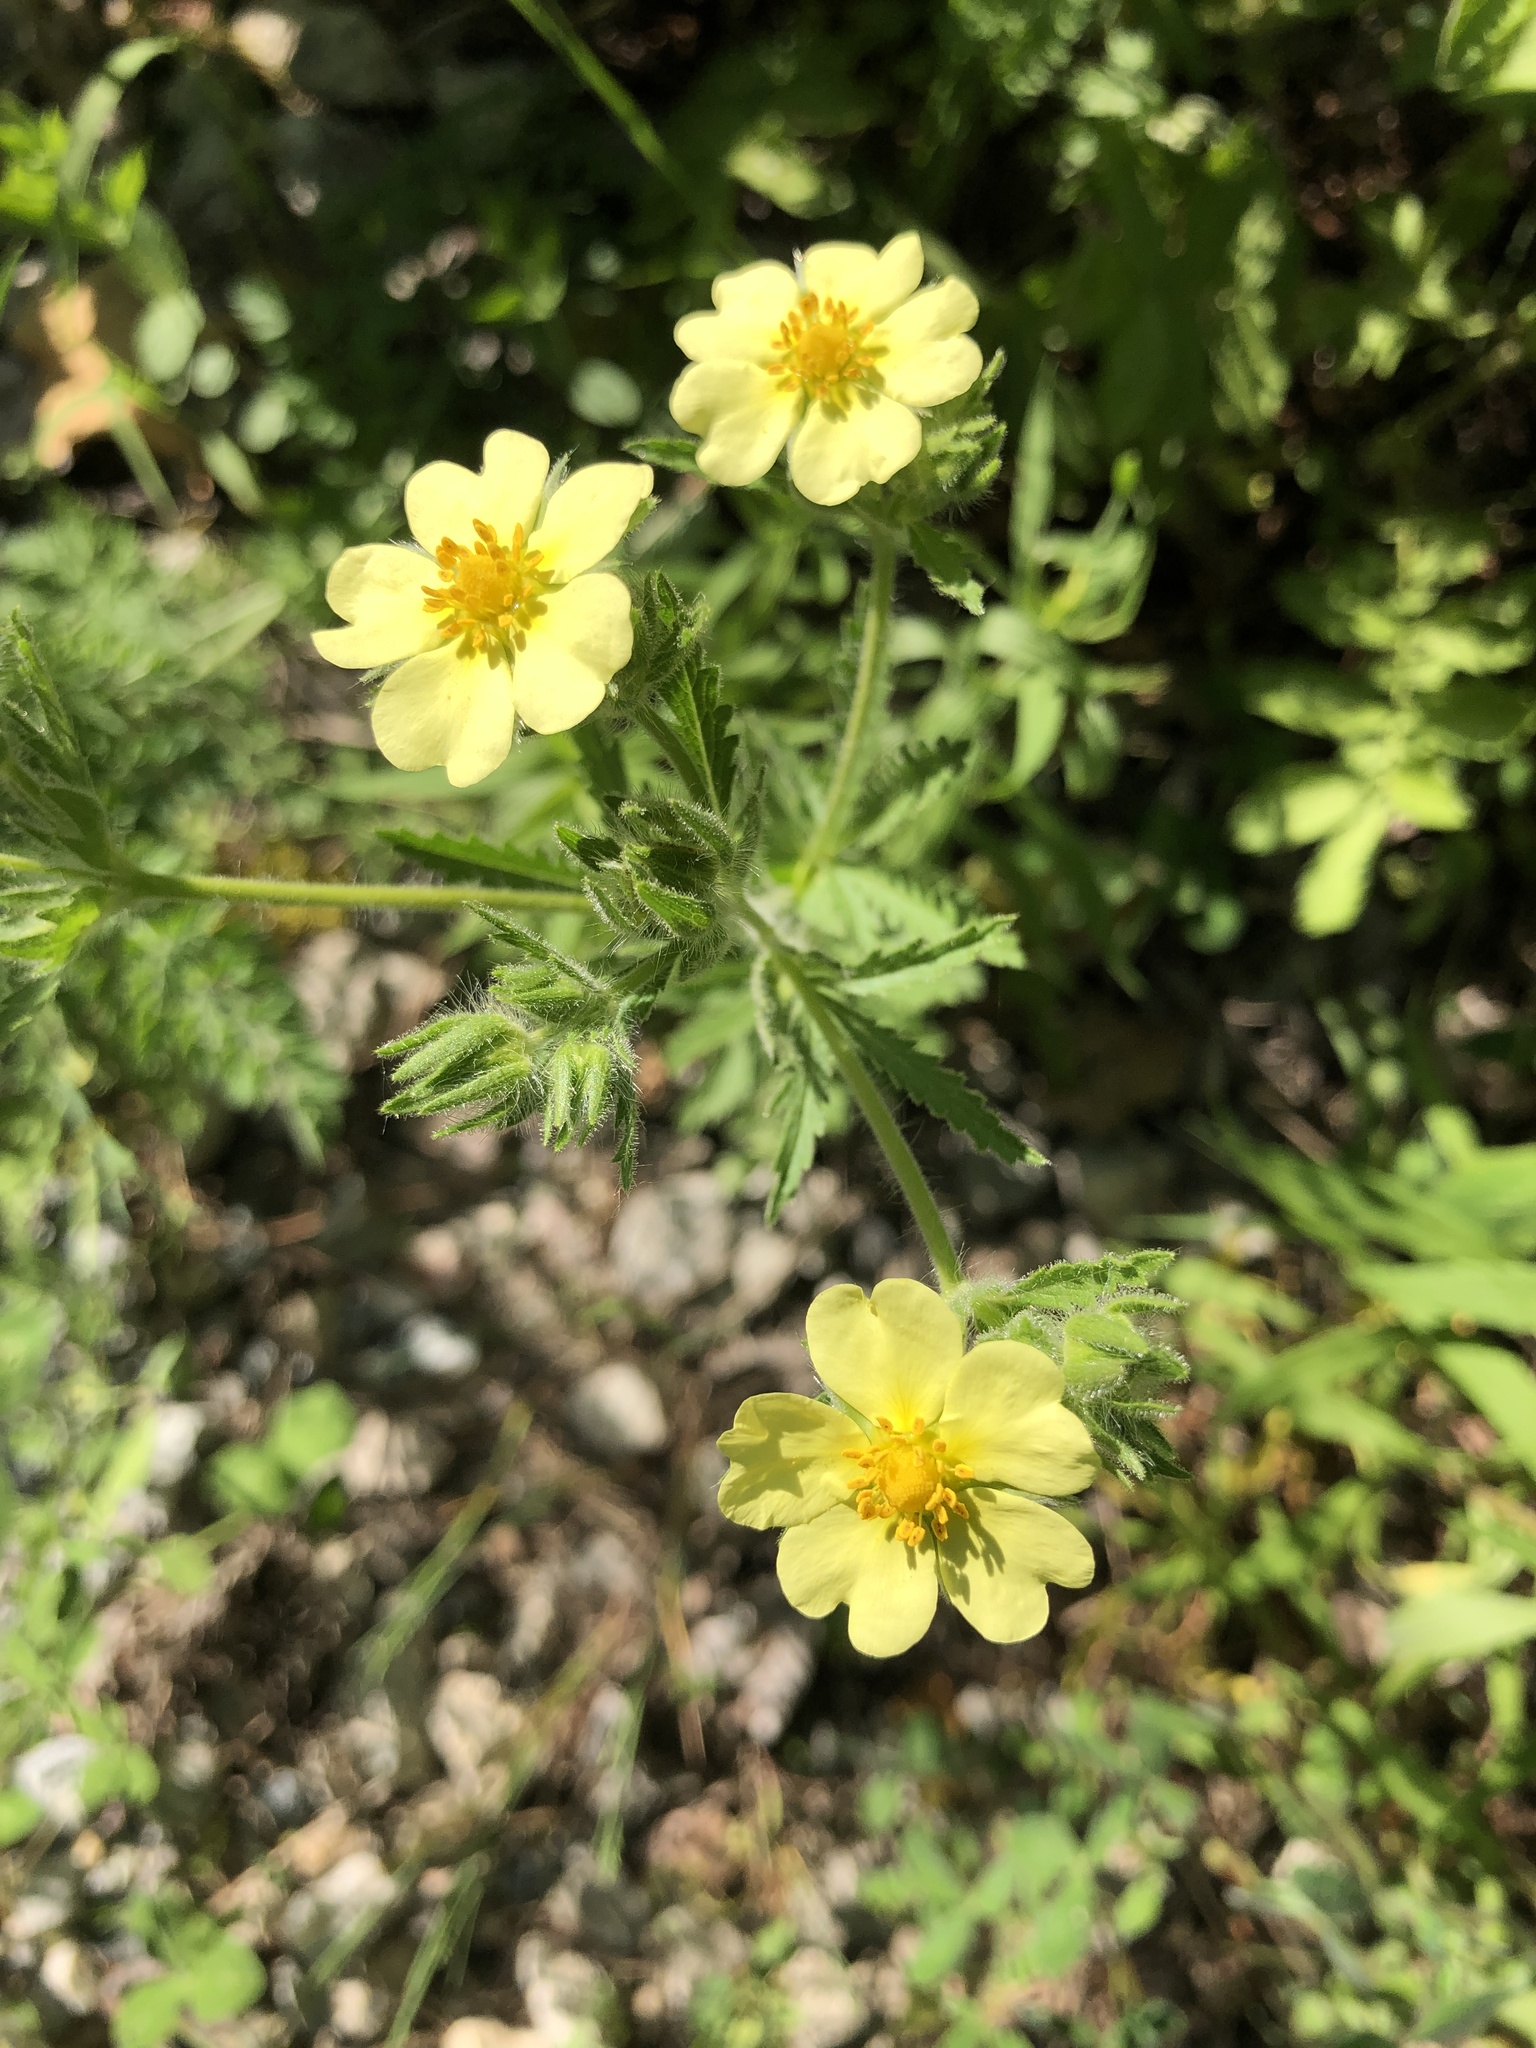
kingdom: Plantae
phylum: Tracheophyta
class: Magnoliopsida
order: Rosales
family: Rosaceae
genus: Potentilla
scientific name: Potentilla recta
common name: Sulphur cinquefoil
